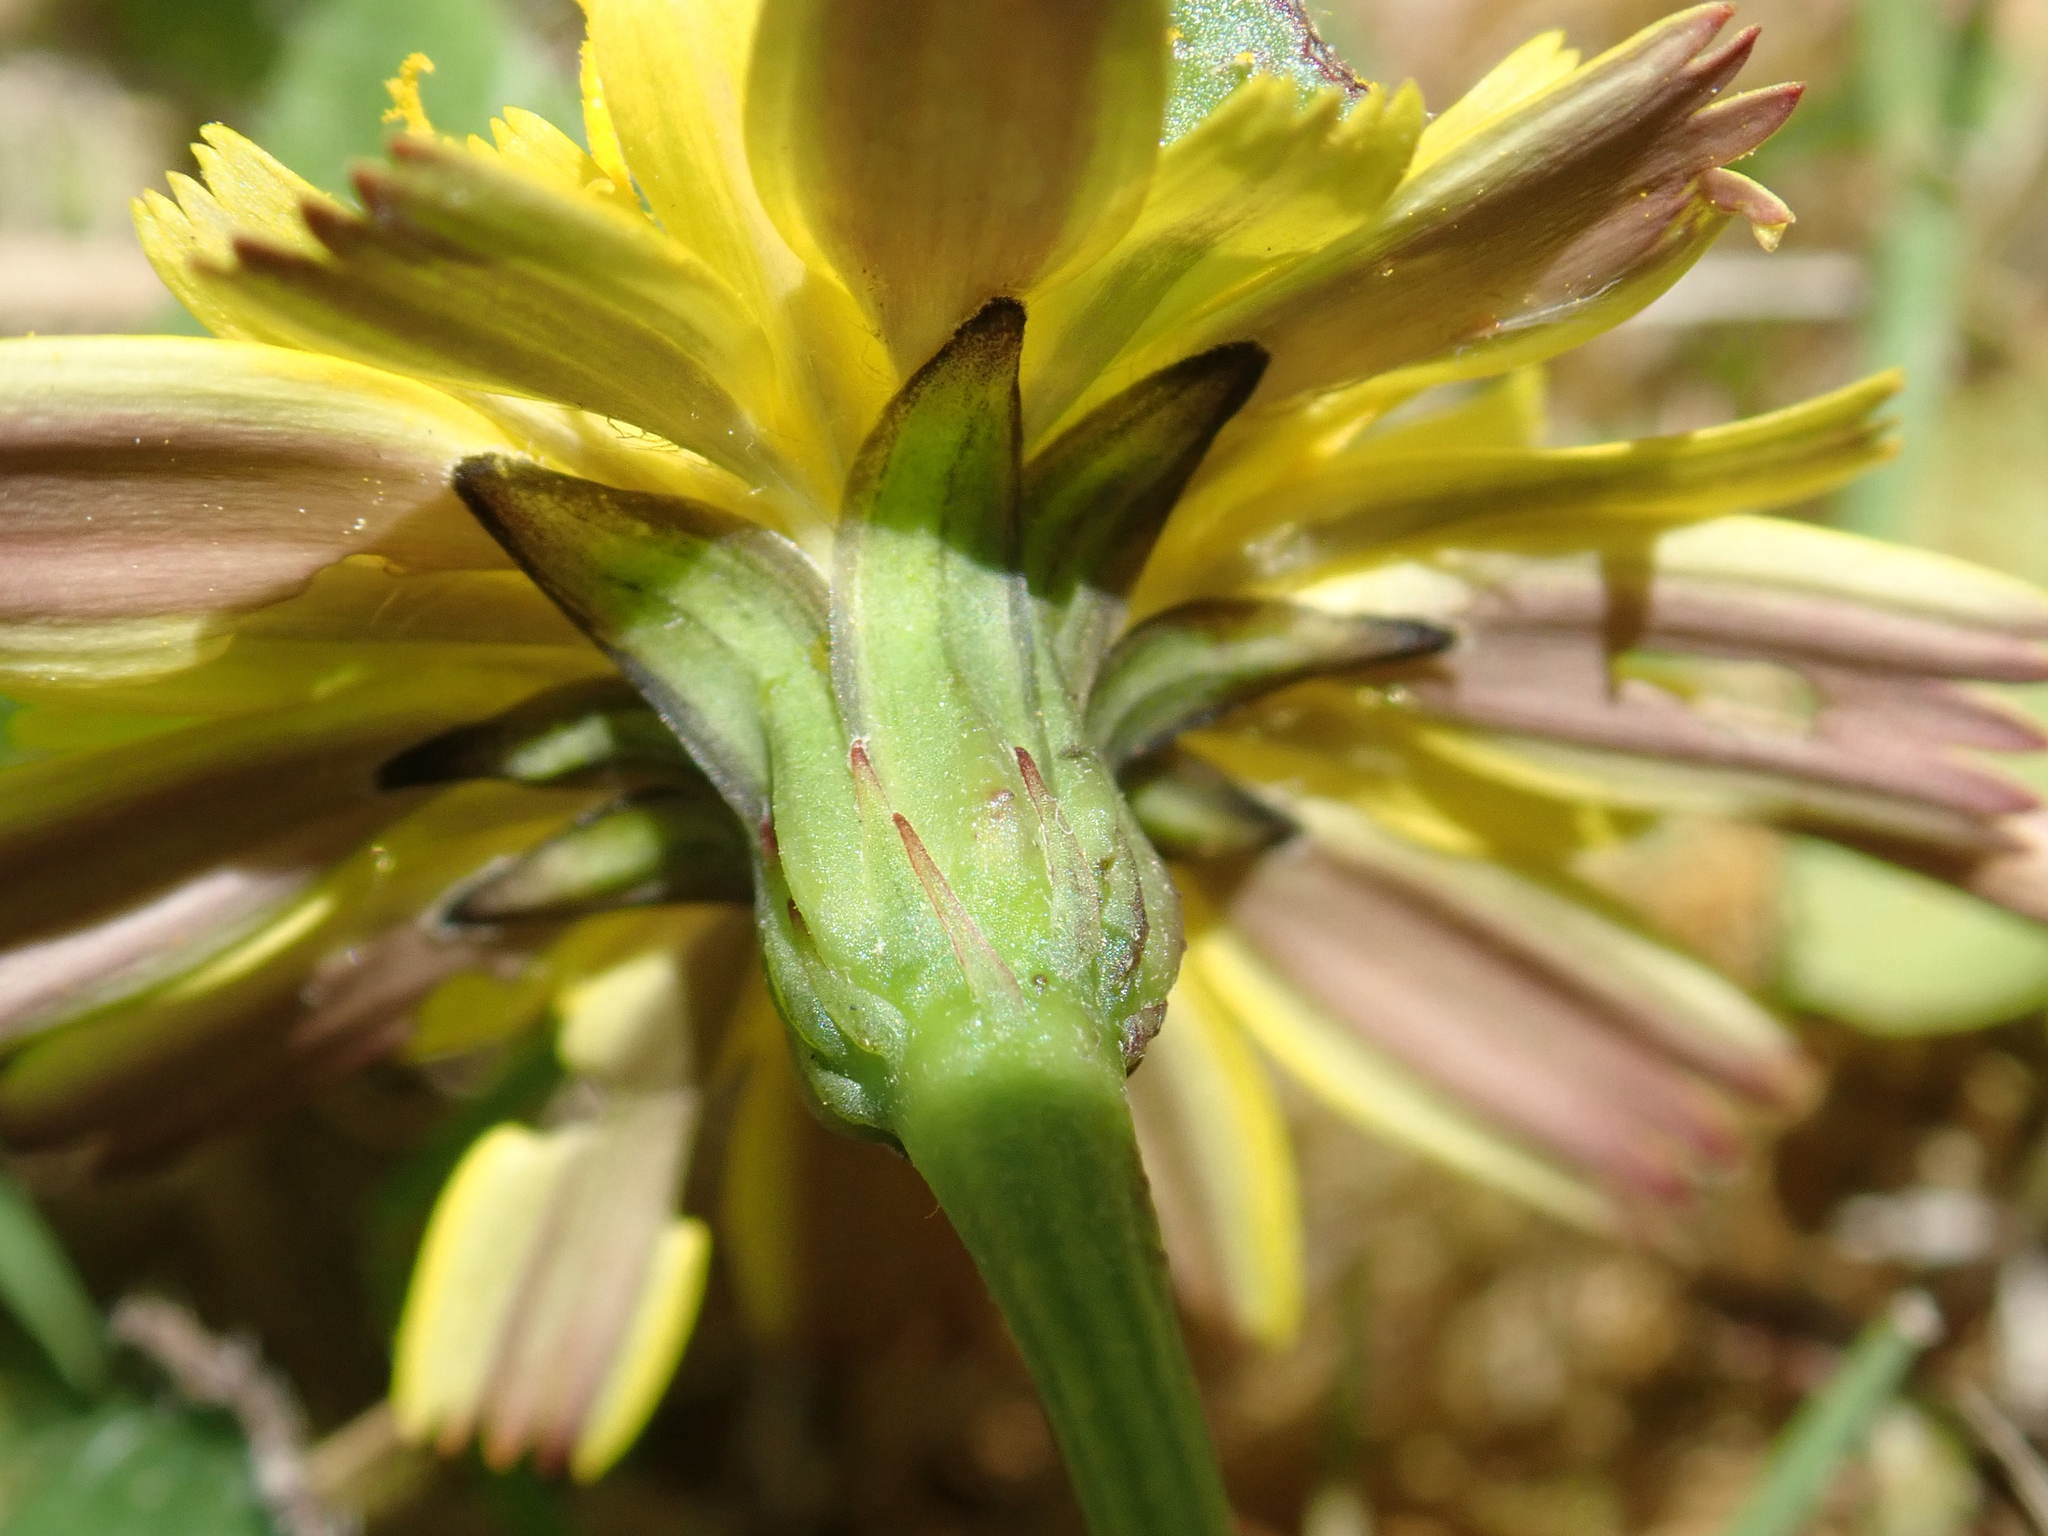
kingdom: Plantae
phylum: Tracheophyta
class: Magnoliopsida
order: Asterales
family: Asteraceae
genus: Thrincia
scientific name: Thrincia saxatilis
